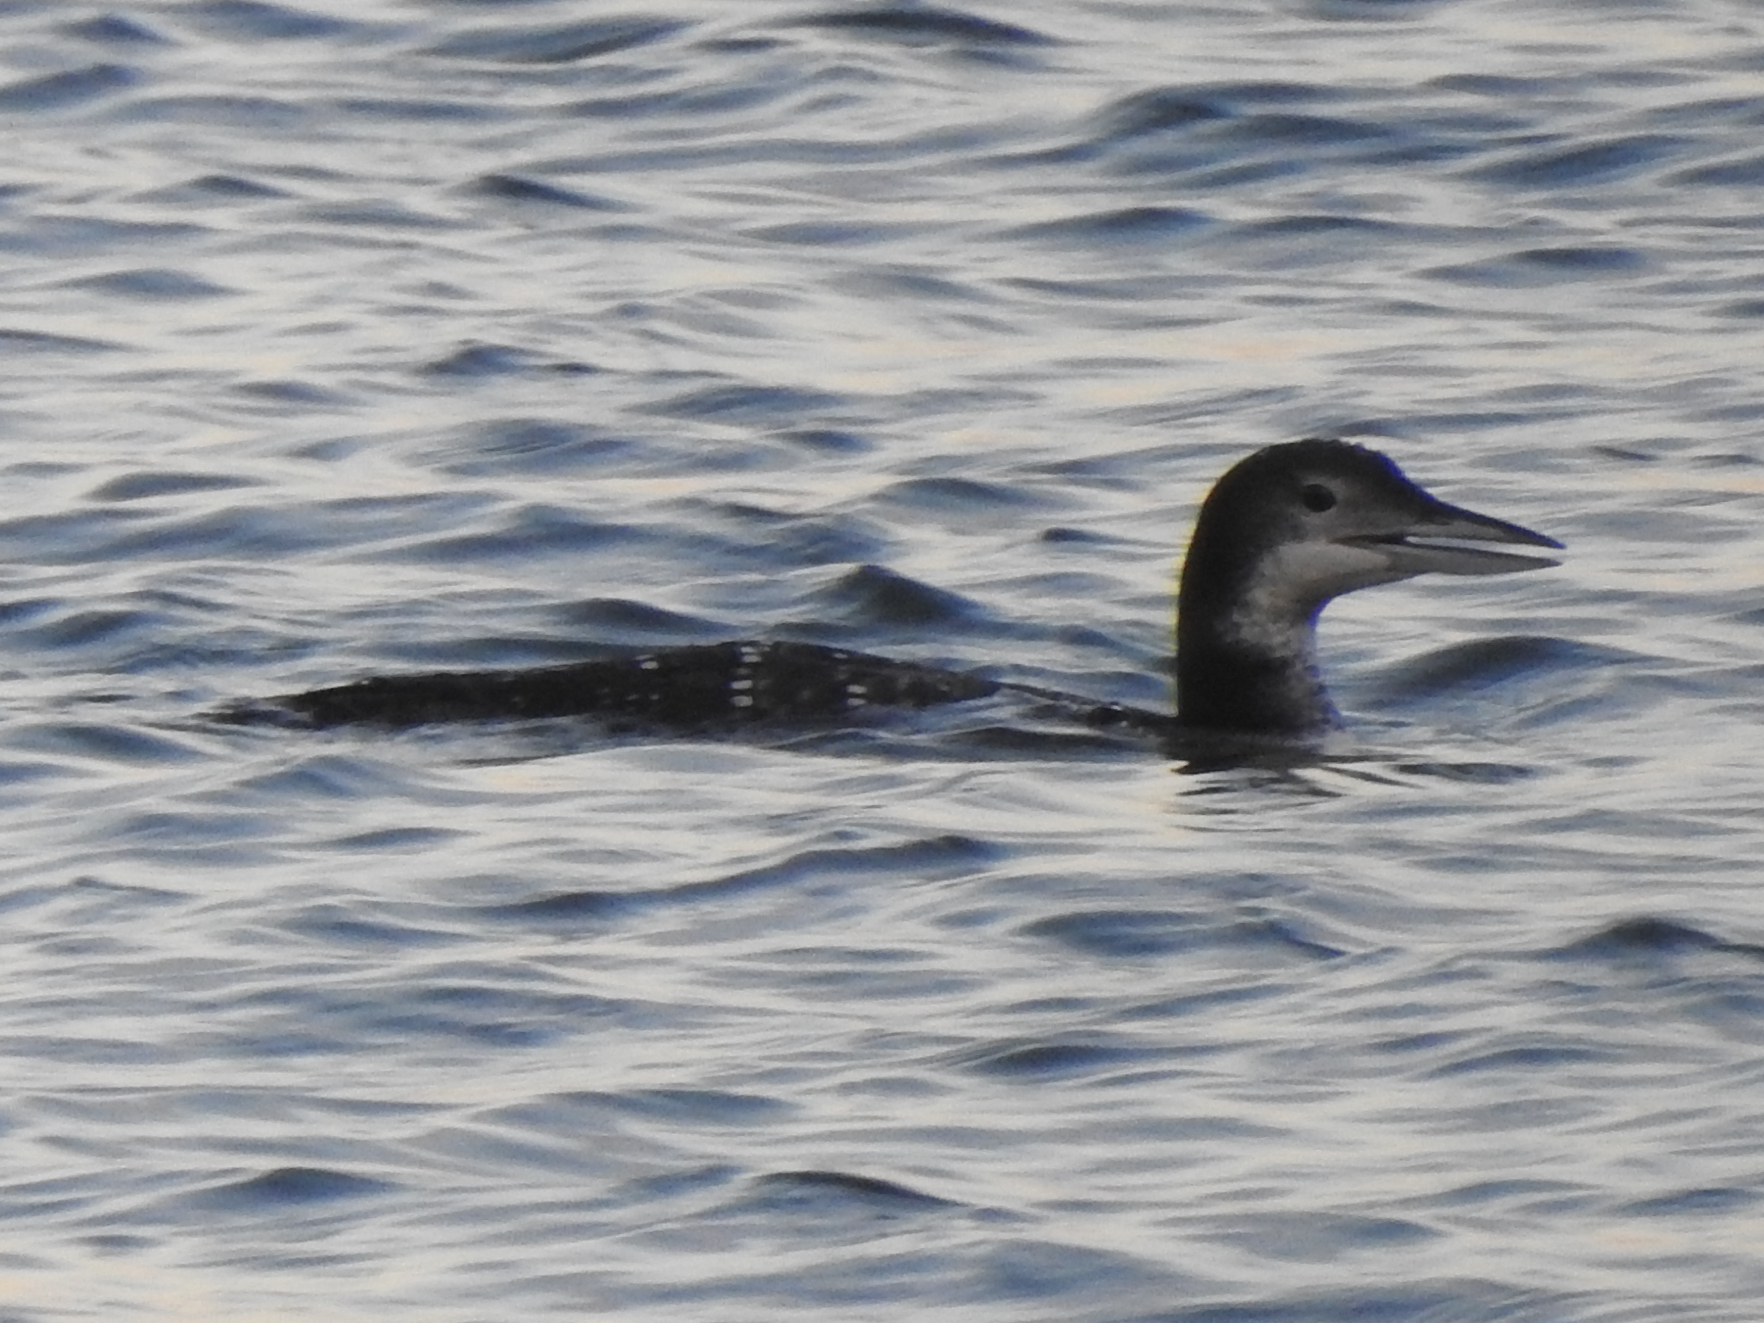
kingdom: Animalia
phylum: Chordata
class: Aves
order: Gaviiformes
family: Gaviidae
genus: Gavia
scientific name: Gavia immer
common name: Common loon
